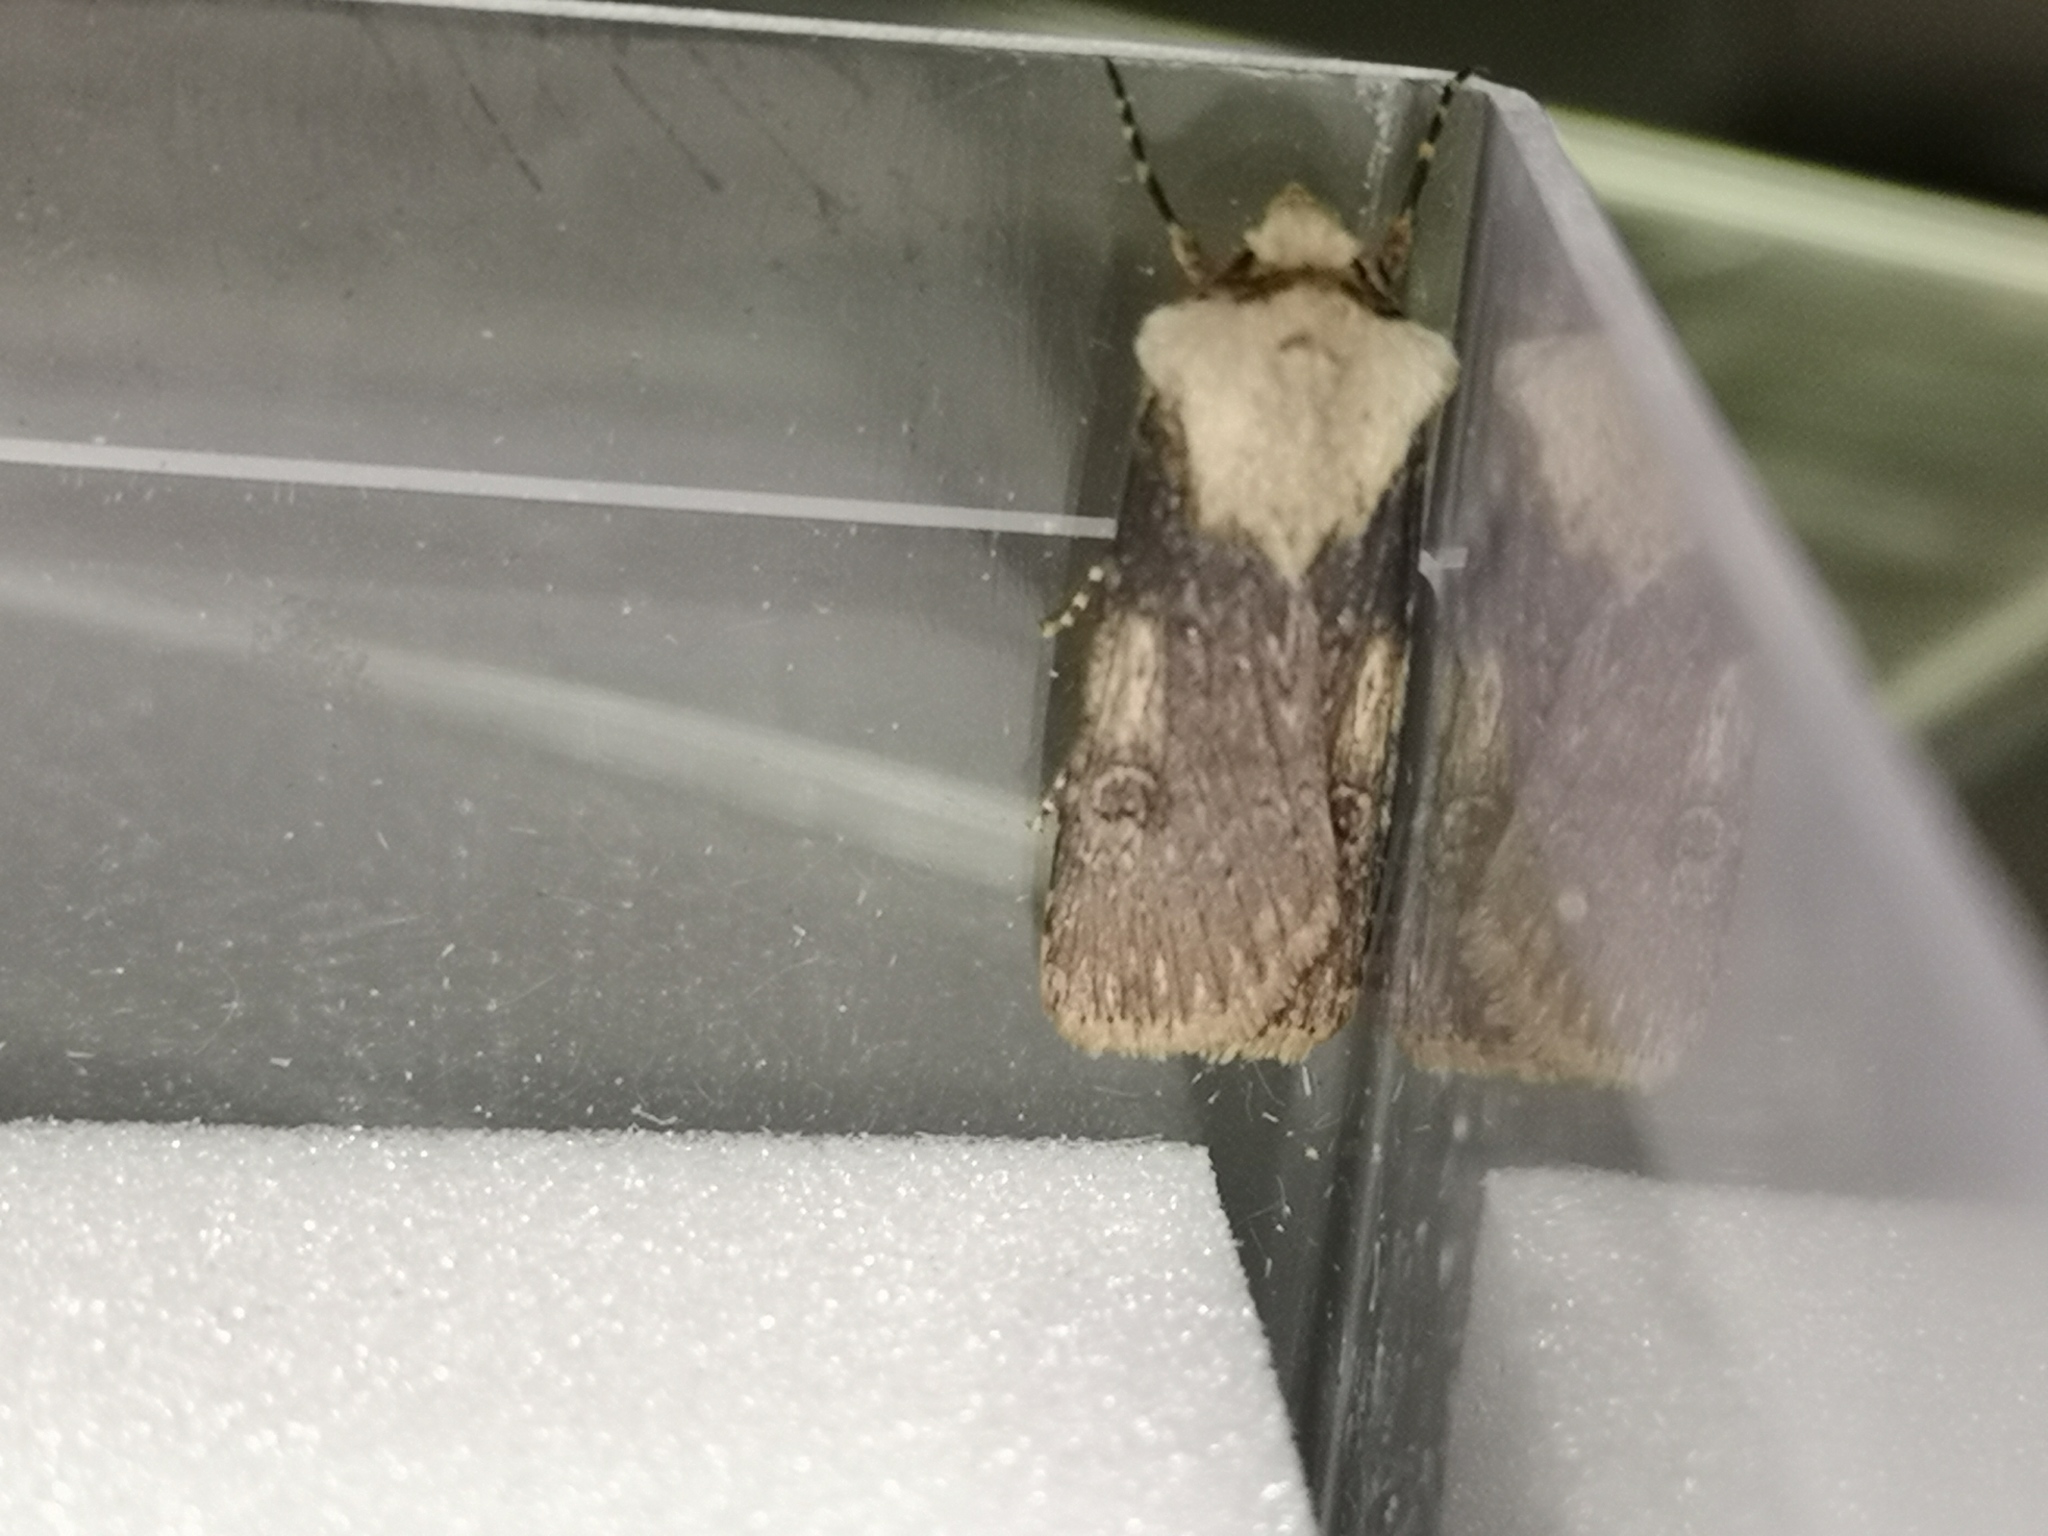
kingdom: Animalia
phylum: Arthropoda
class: Insecta
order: Lepidoptera
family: Noctuidae
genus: Agrotis
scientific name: Agrotis puta
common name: Shuttle-shaped dart
